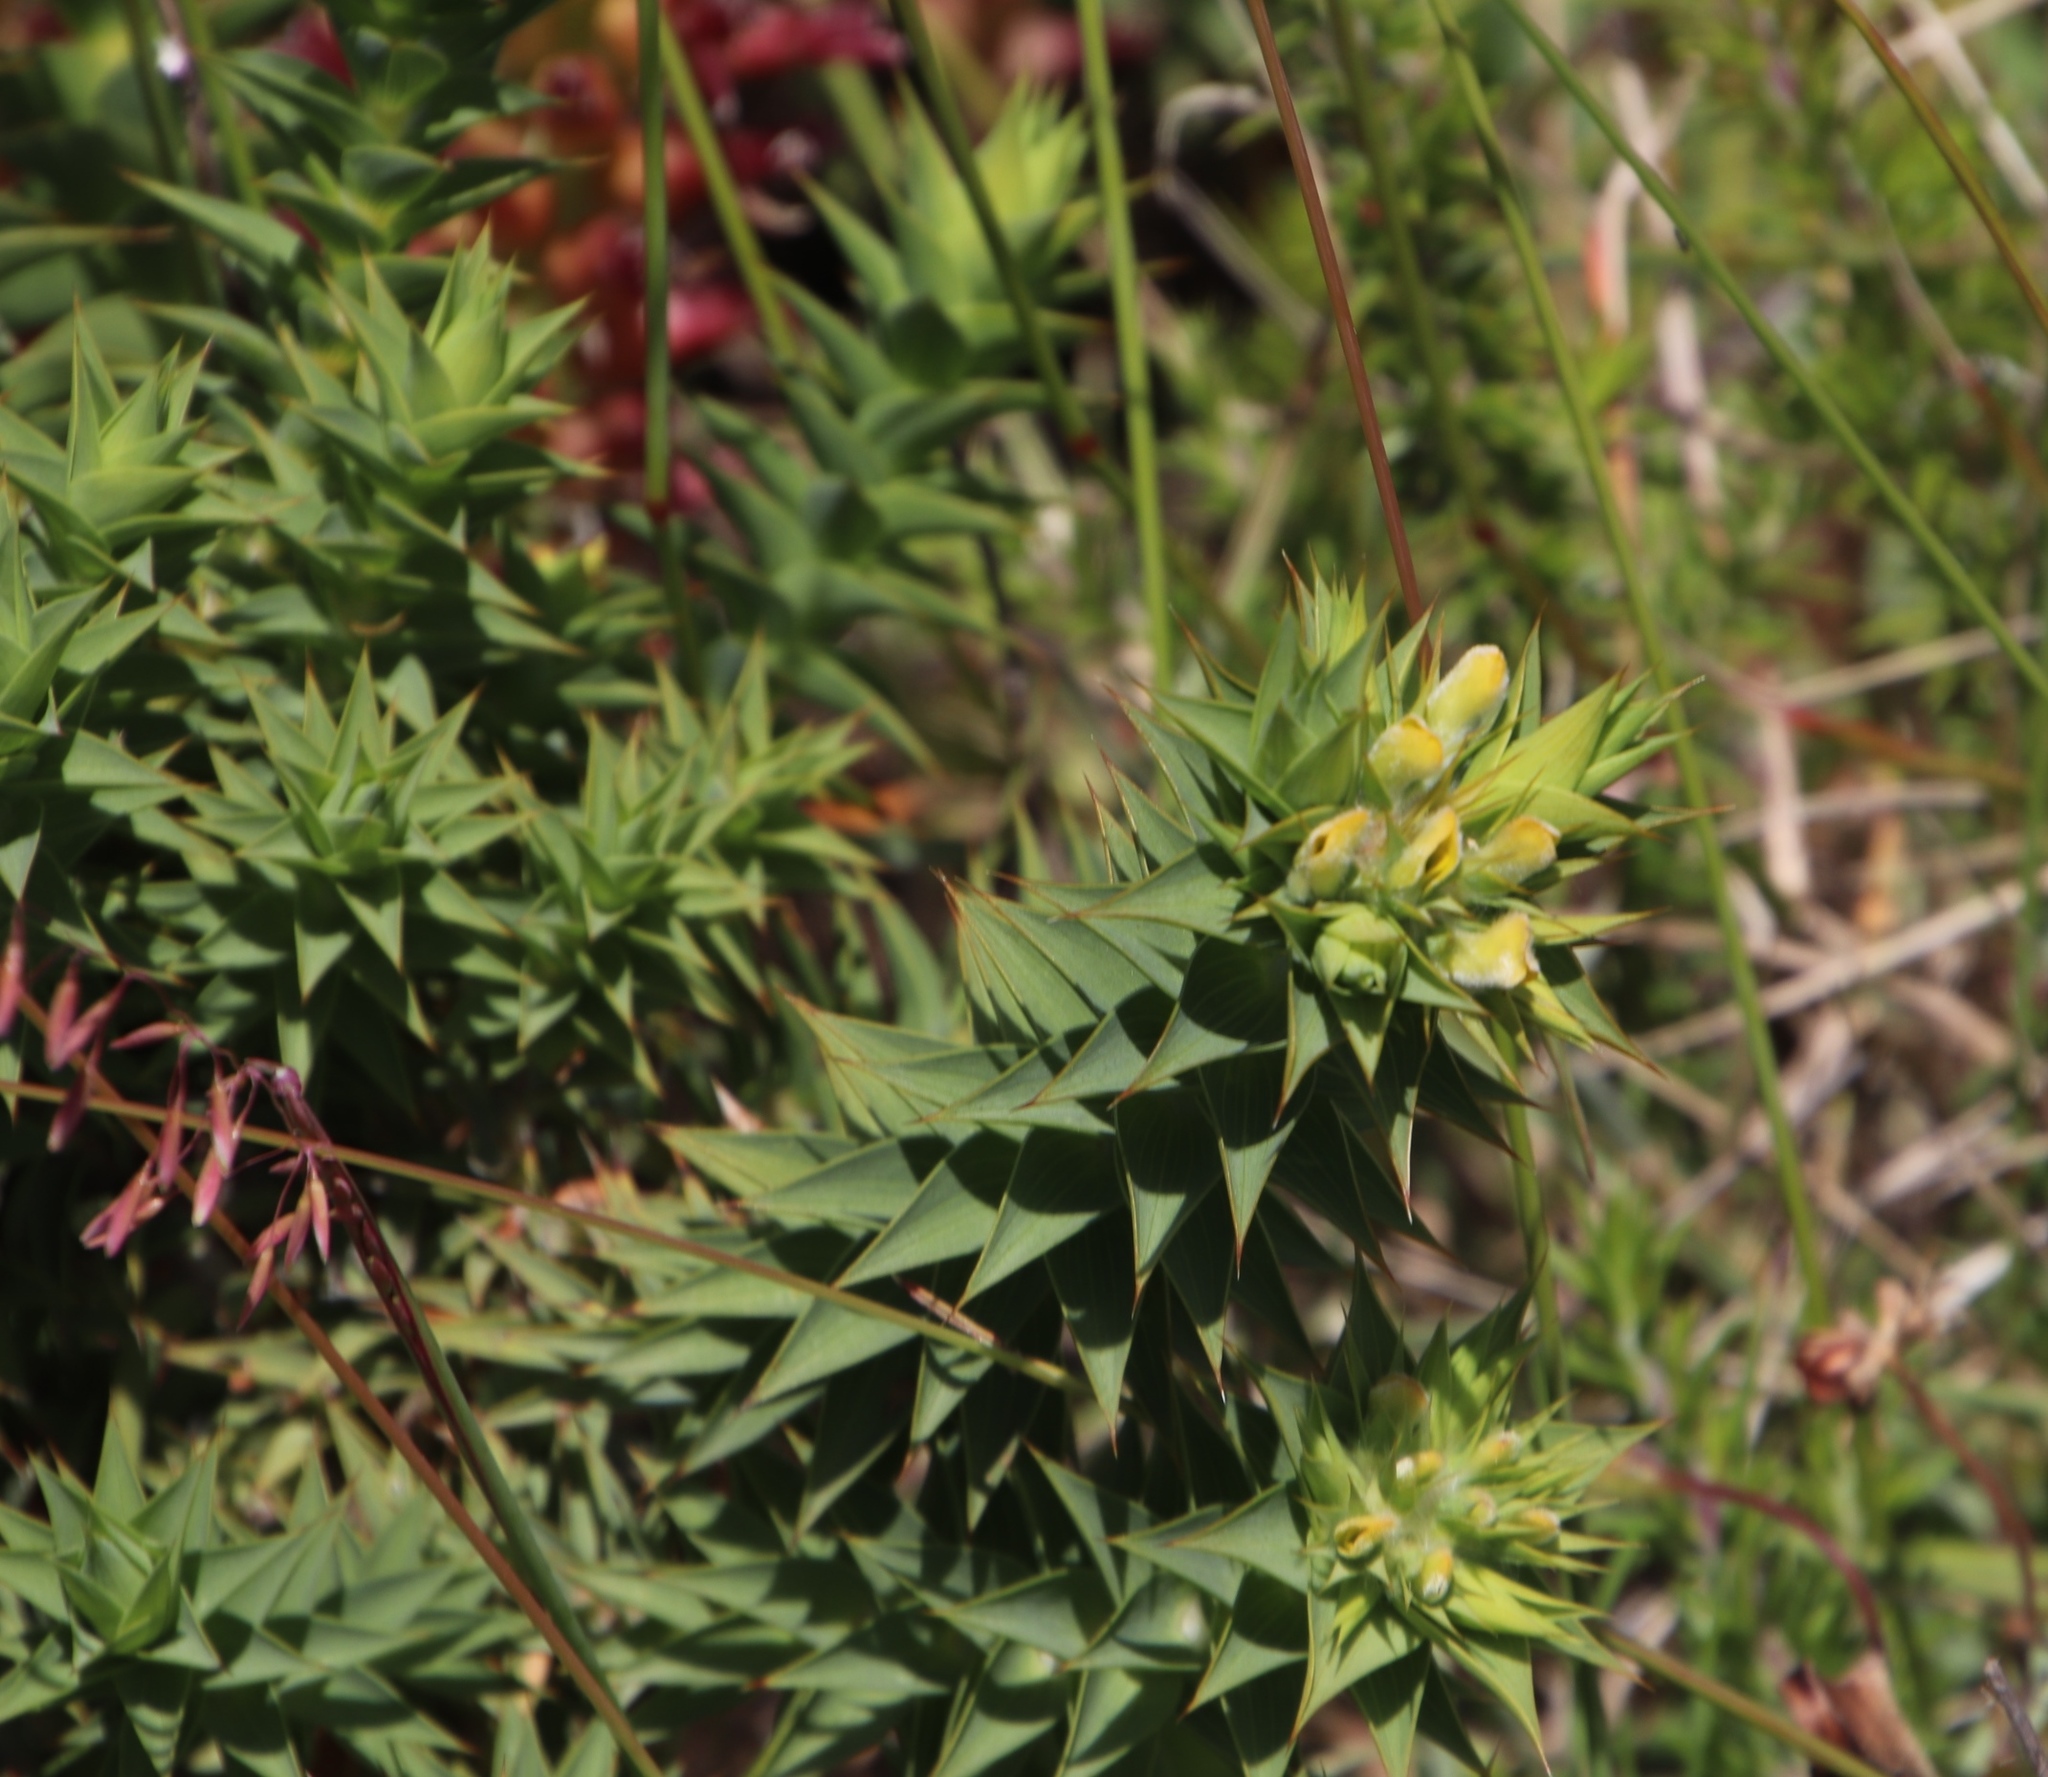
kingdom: Plantae
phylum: Tracheophyta
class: Magnoliopsida
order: Fabales
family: Fabaceae
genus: Aspalathus
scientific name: Aspalathus cordata
